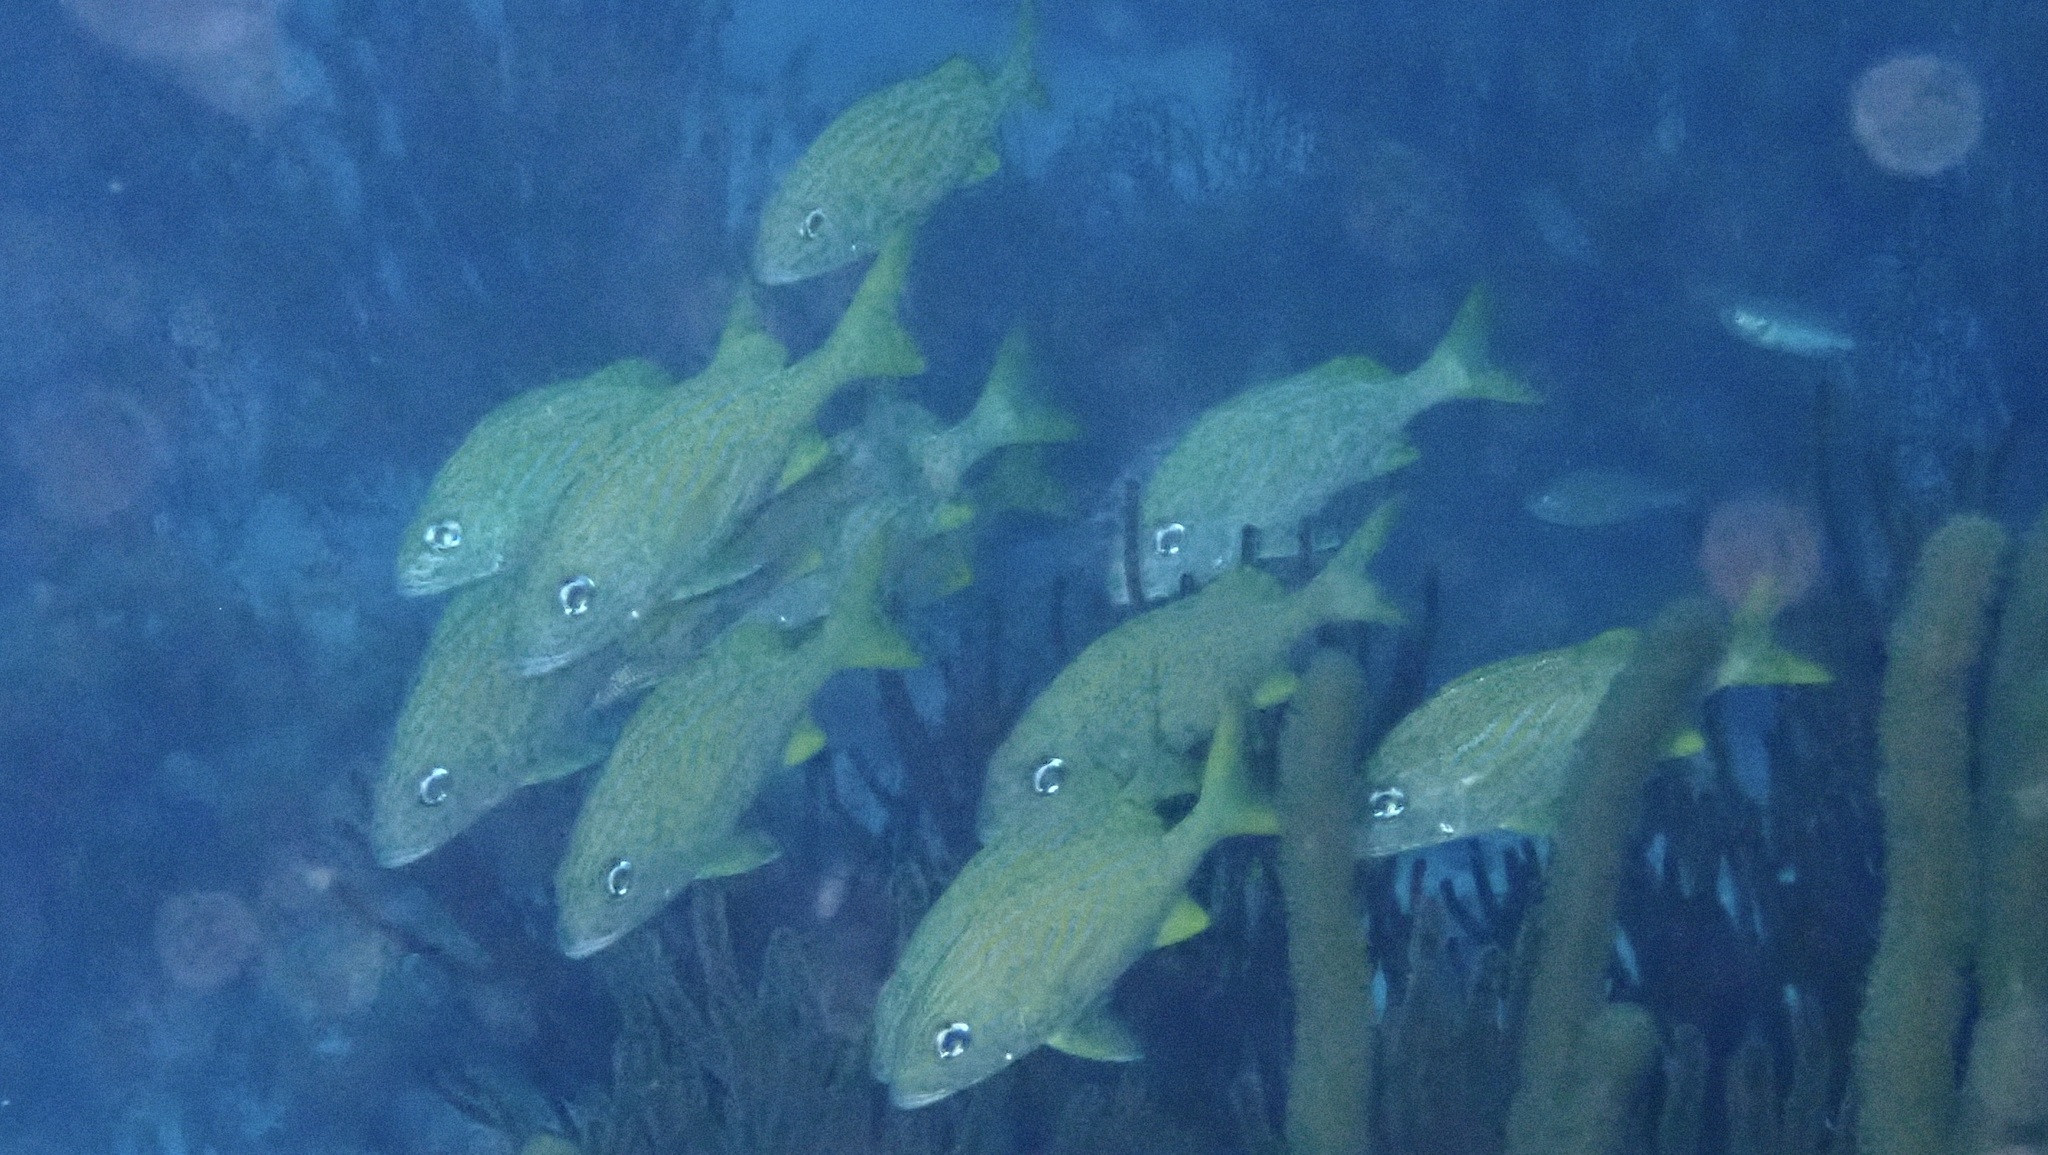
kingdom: Animalia
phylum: Chordata
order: Perciformes
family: Haemulidae
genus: Haemulon
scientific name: Haemulon flavolineatum
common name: French grunt
